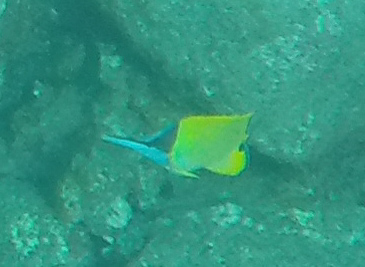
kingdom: Animalia
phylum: Chordata
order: Perciformes
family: Chaetodontidae
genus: Forcipiger
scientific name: Forcipiger flavissimus
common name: Forcepsfish
